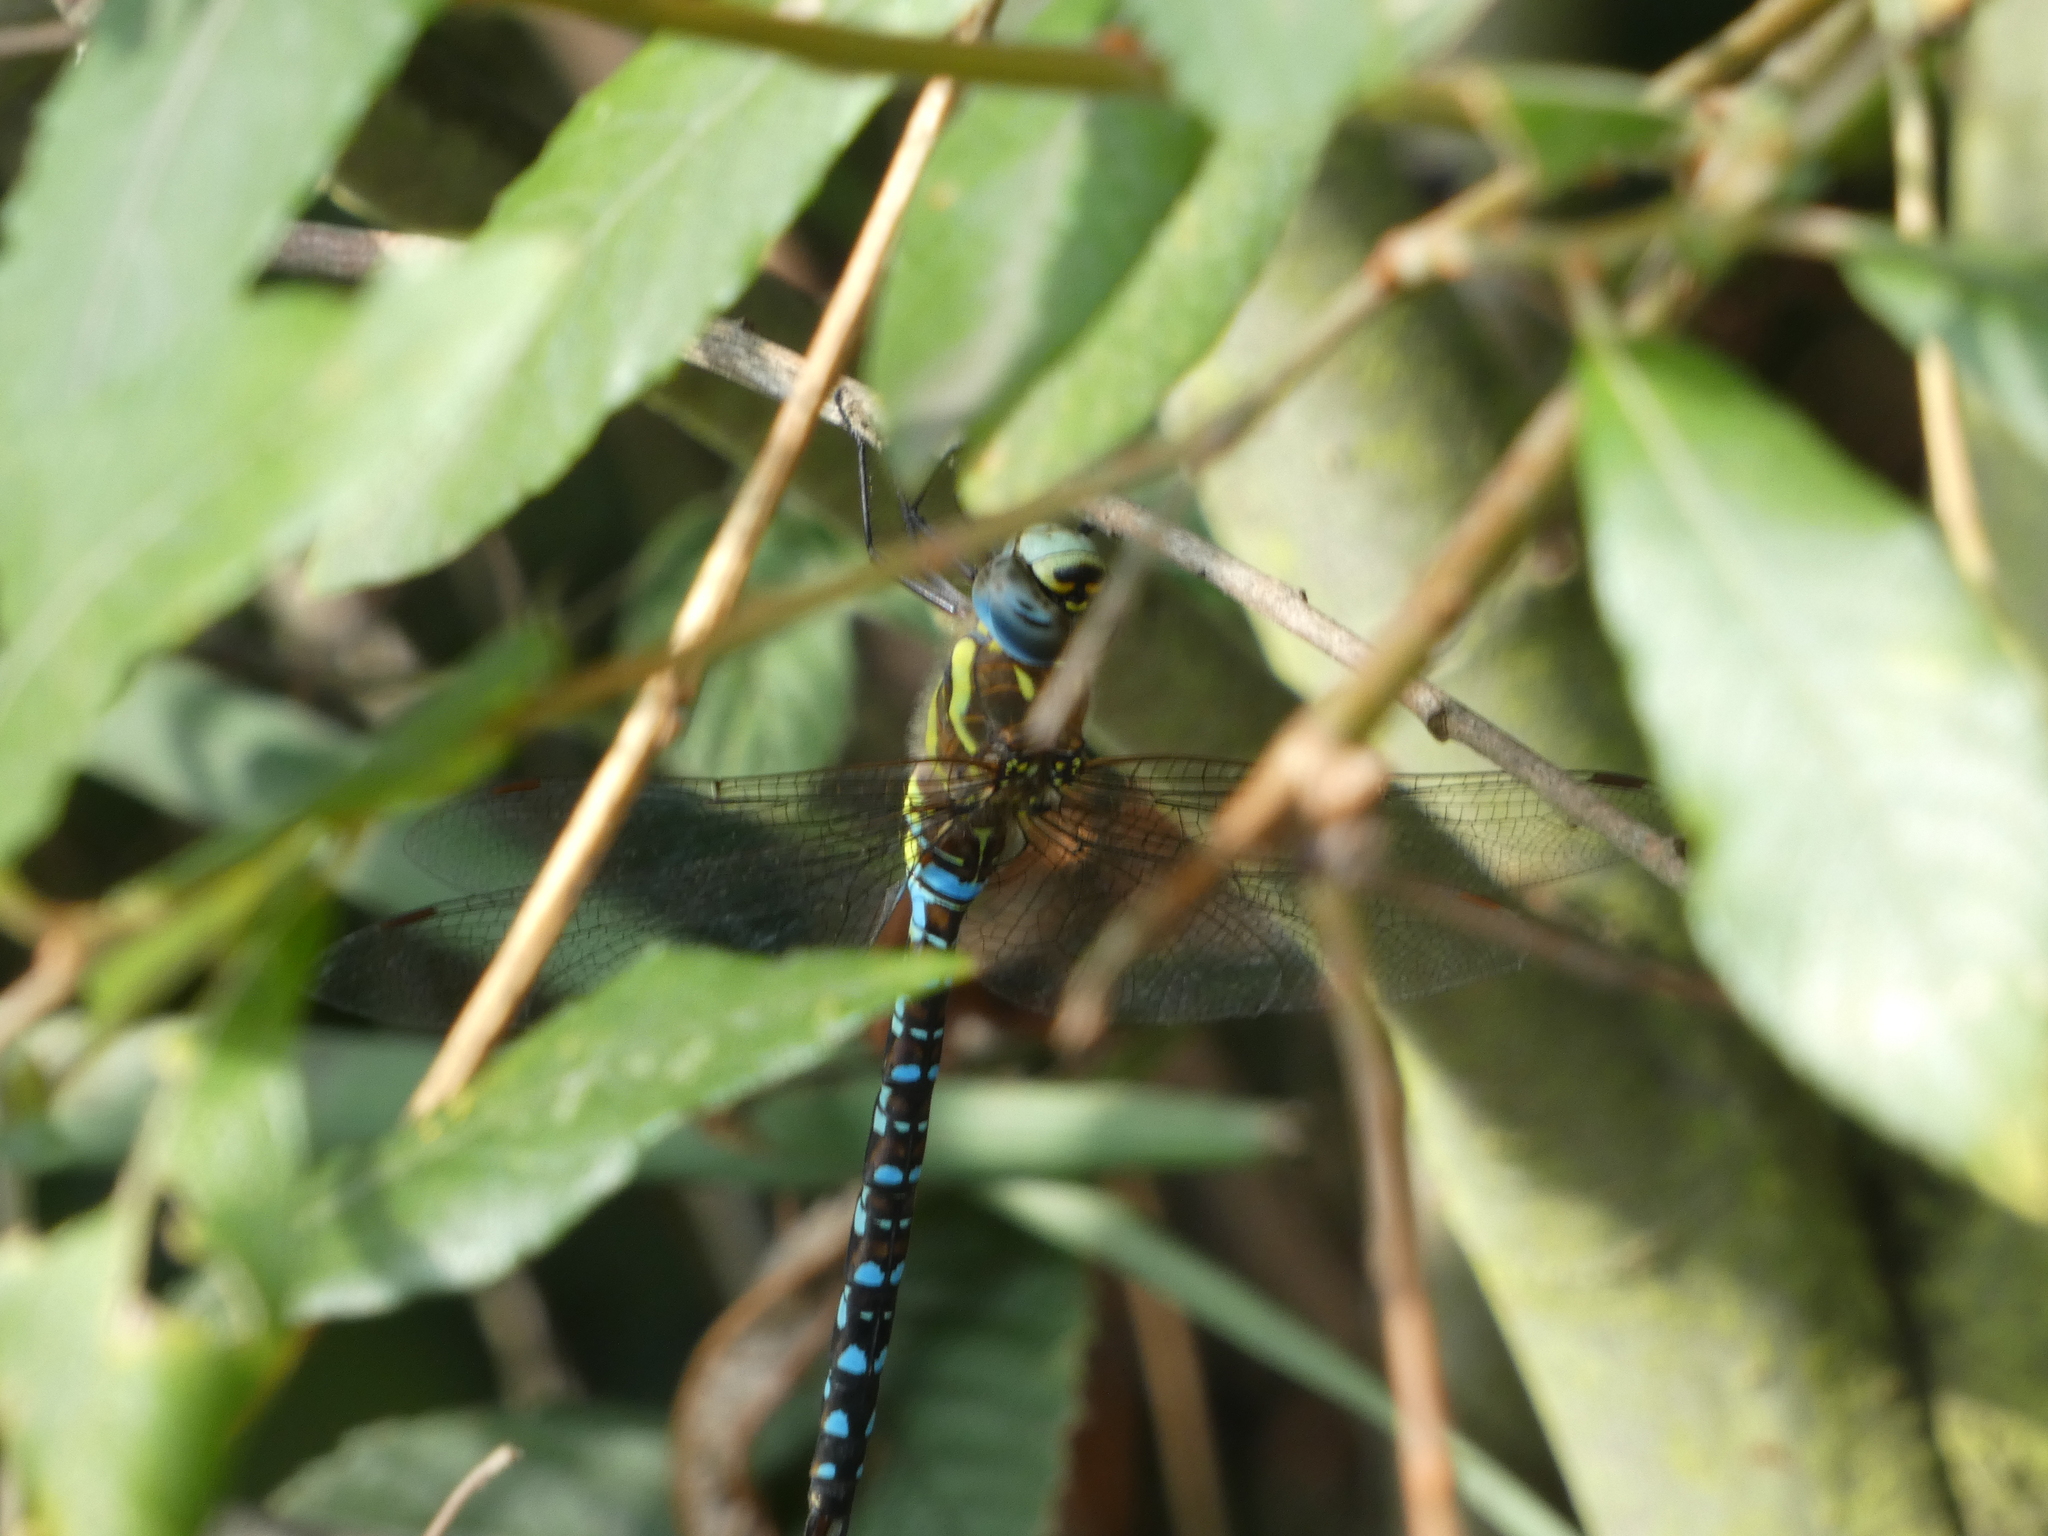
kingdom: Animalia
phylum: Arthropoda
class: Insecta
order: Odonata
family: Aeshnidae
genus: Aeshna
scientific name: Aeshna mixta
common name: Migrant hawker
